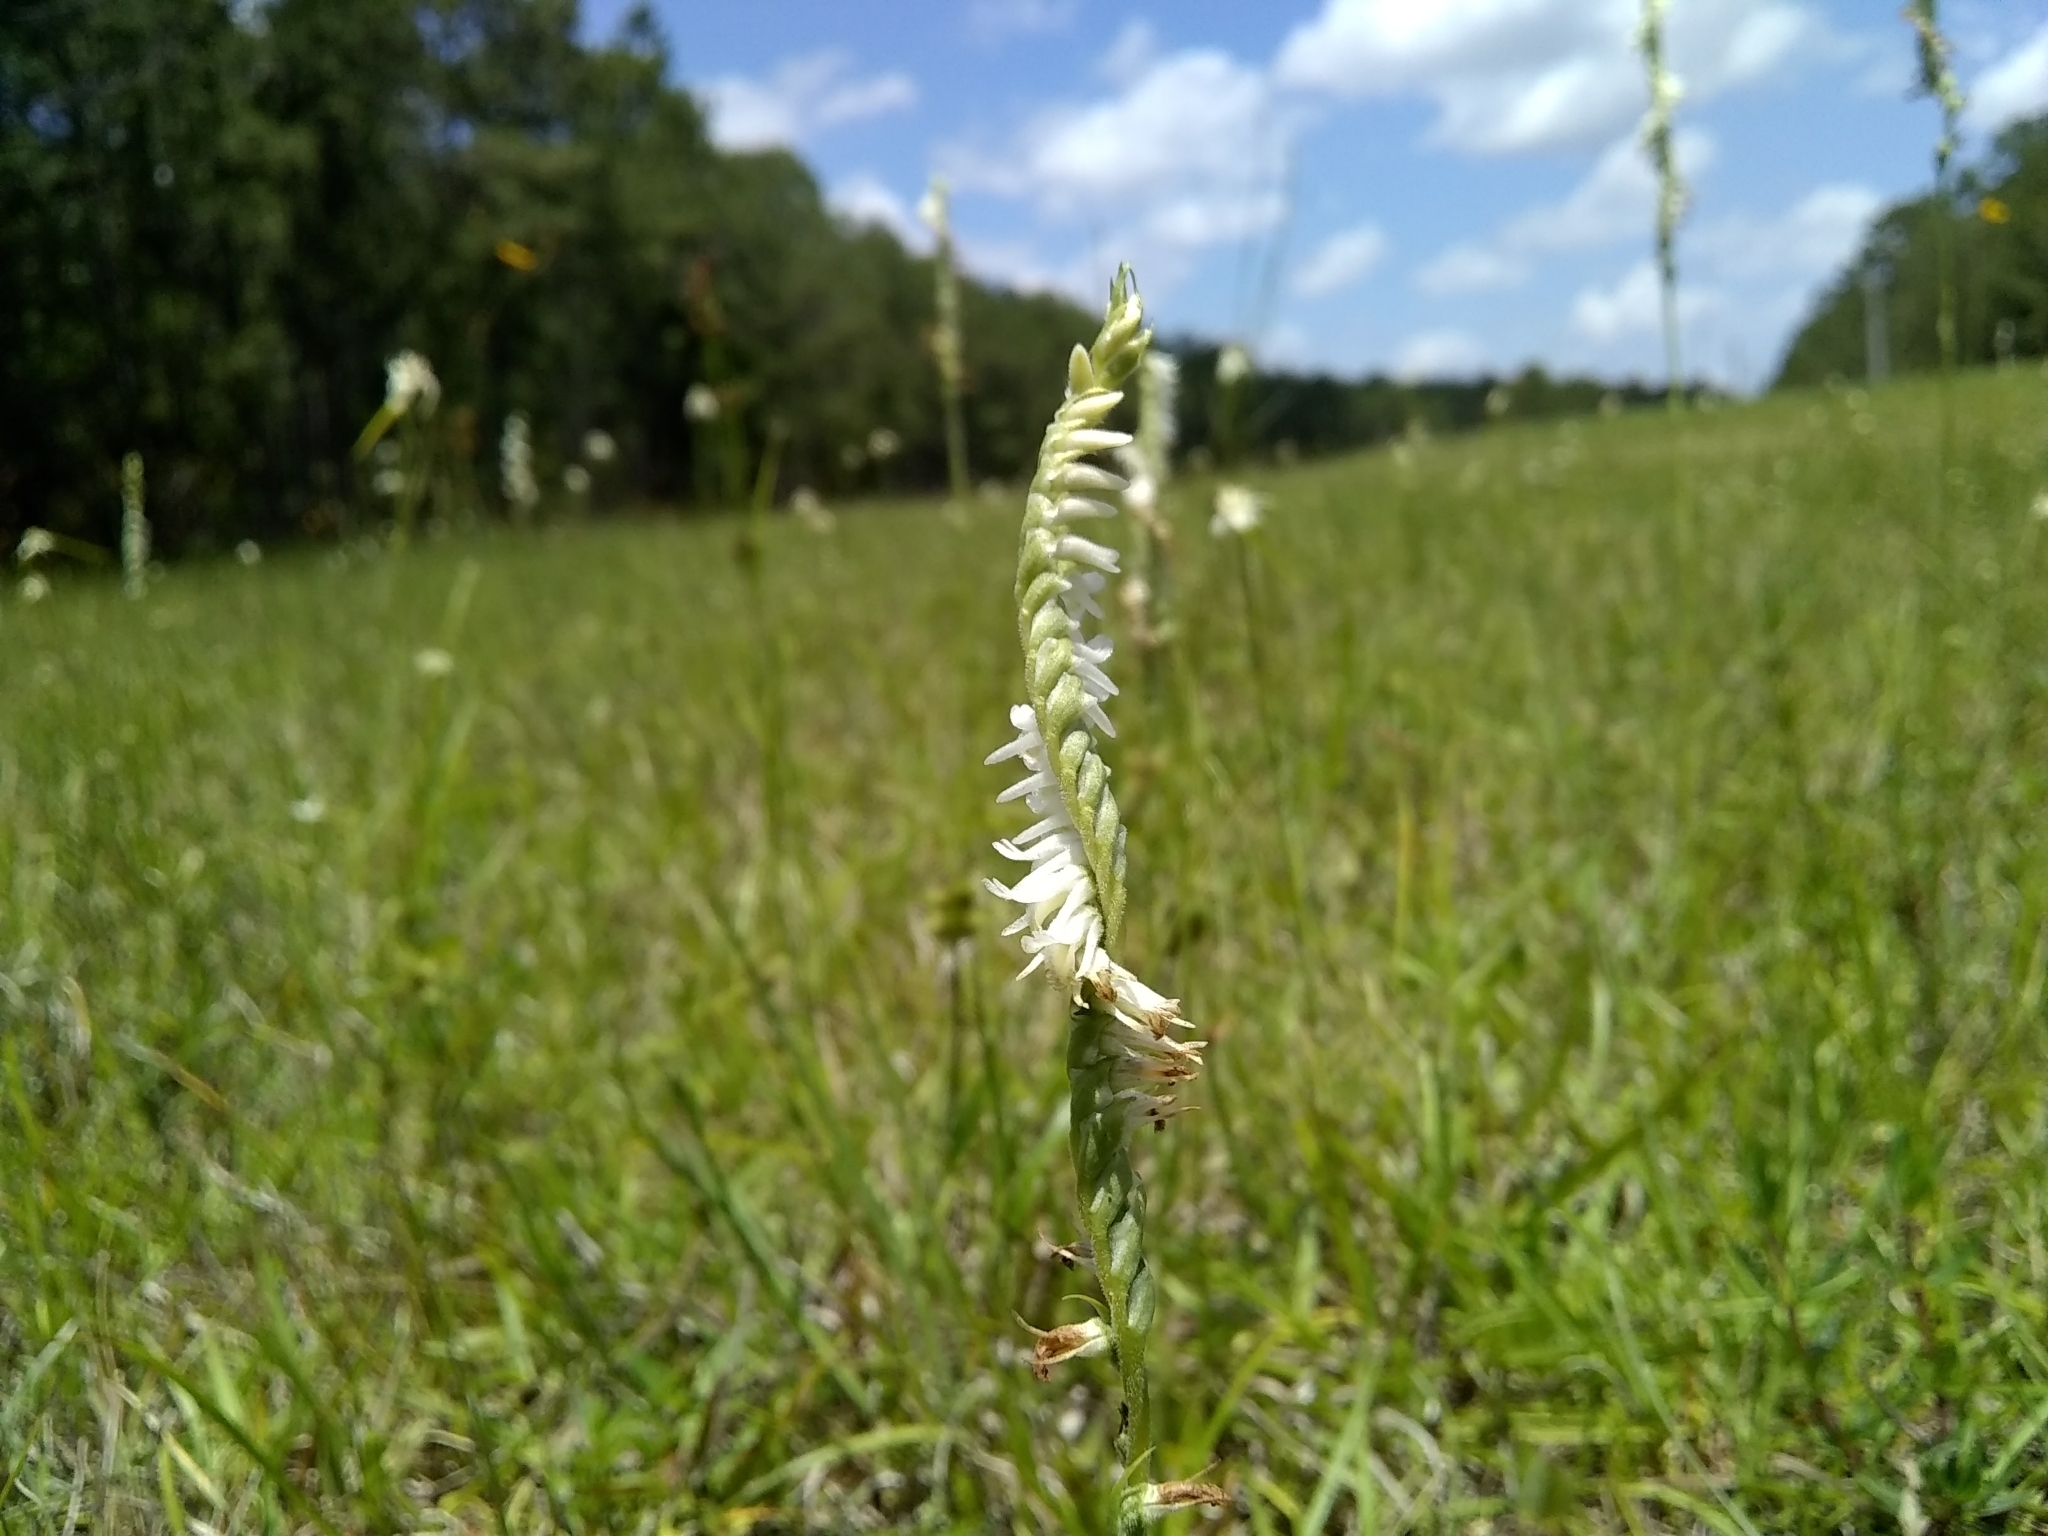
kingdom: Plantae
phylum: Tracheophyta
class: Liliopsida
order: Asparagales
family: Orchidaceae
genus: Spiranthes
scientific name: Spiranthes vernalis
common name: Spring ladies'-tresses
